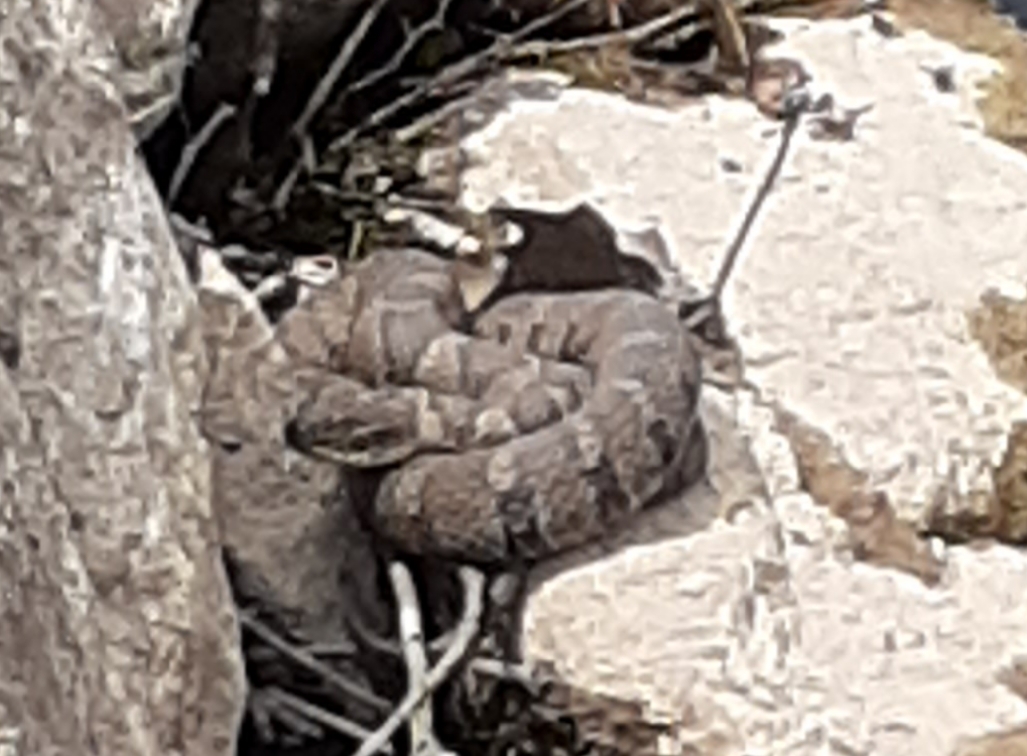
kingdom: Animalia
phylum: Chordata
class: Squamata
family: Colubridae
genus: Nerodia
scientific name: Nerodia sipedon
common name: Northern water snake
